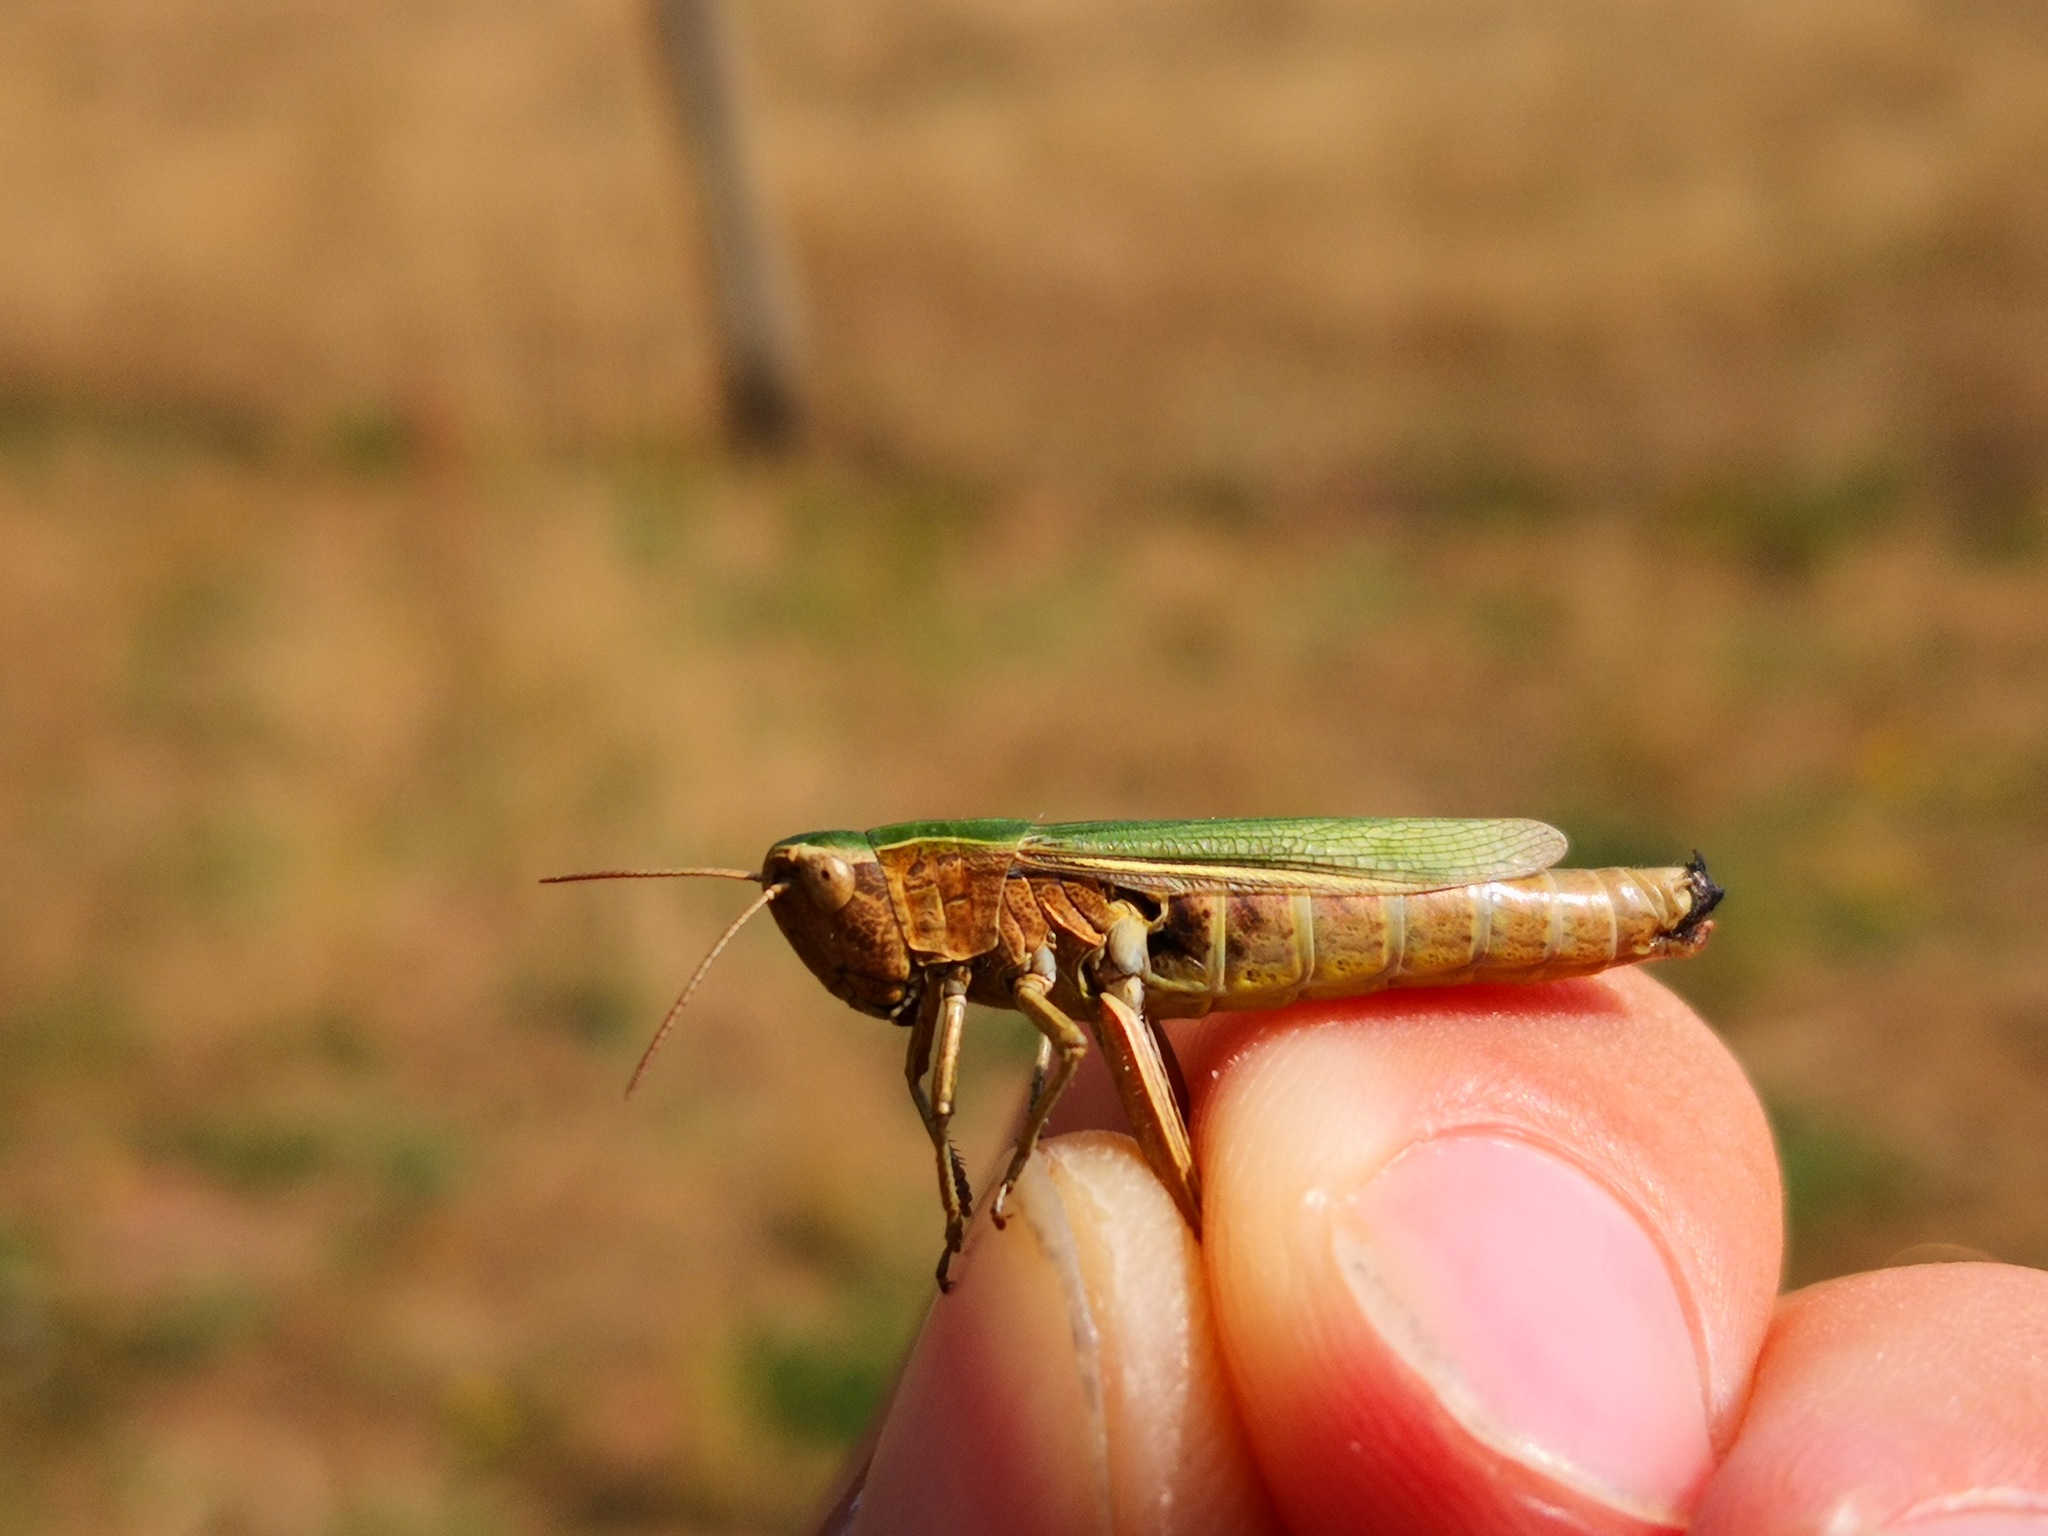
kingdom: Animalia
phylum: Arthropoda
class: Insecta
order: Orthoptera
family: Acrididae
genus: Chorthippus
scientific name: Chorthippus albomarginatus
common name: Lesser marsh grasshopper
